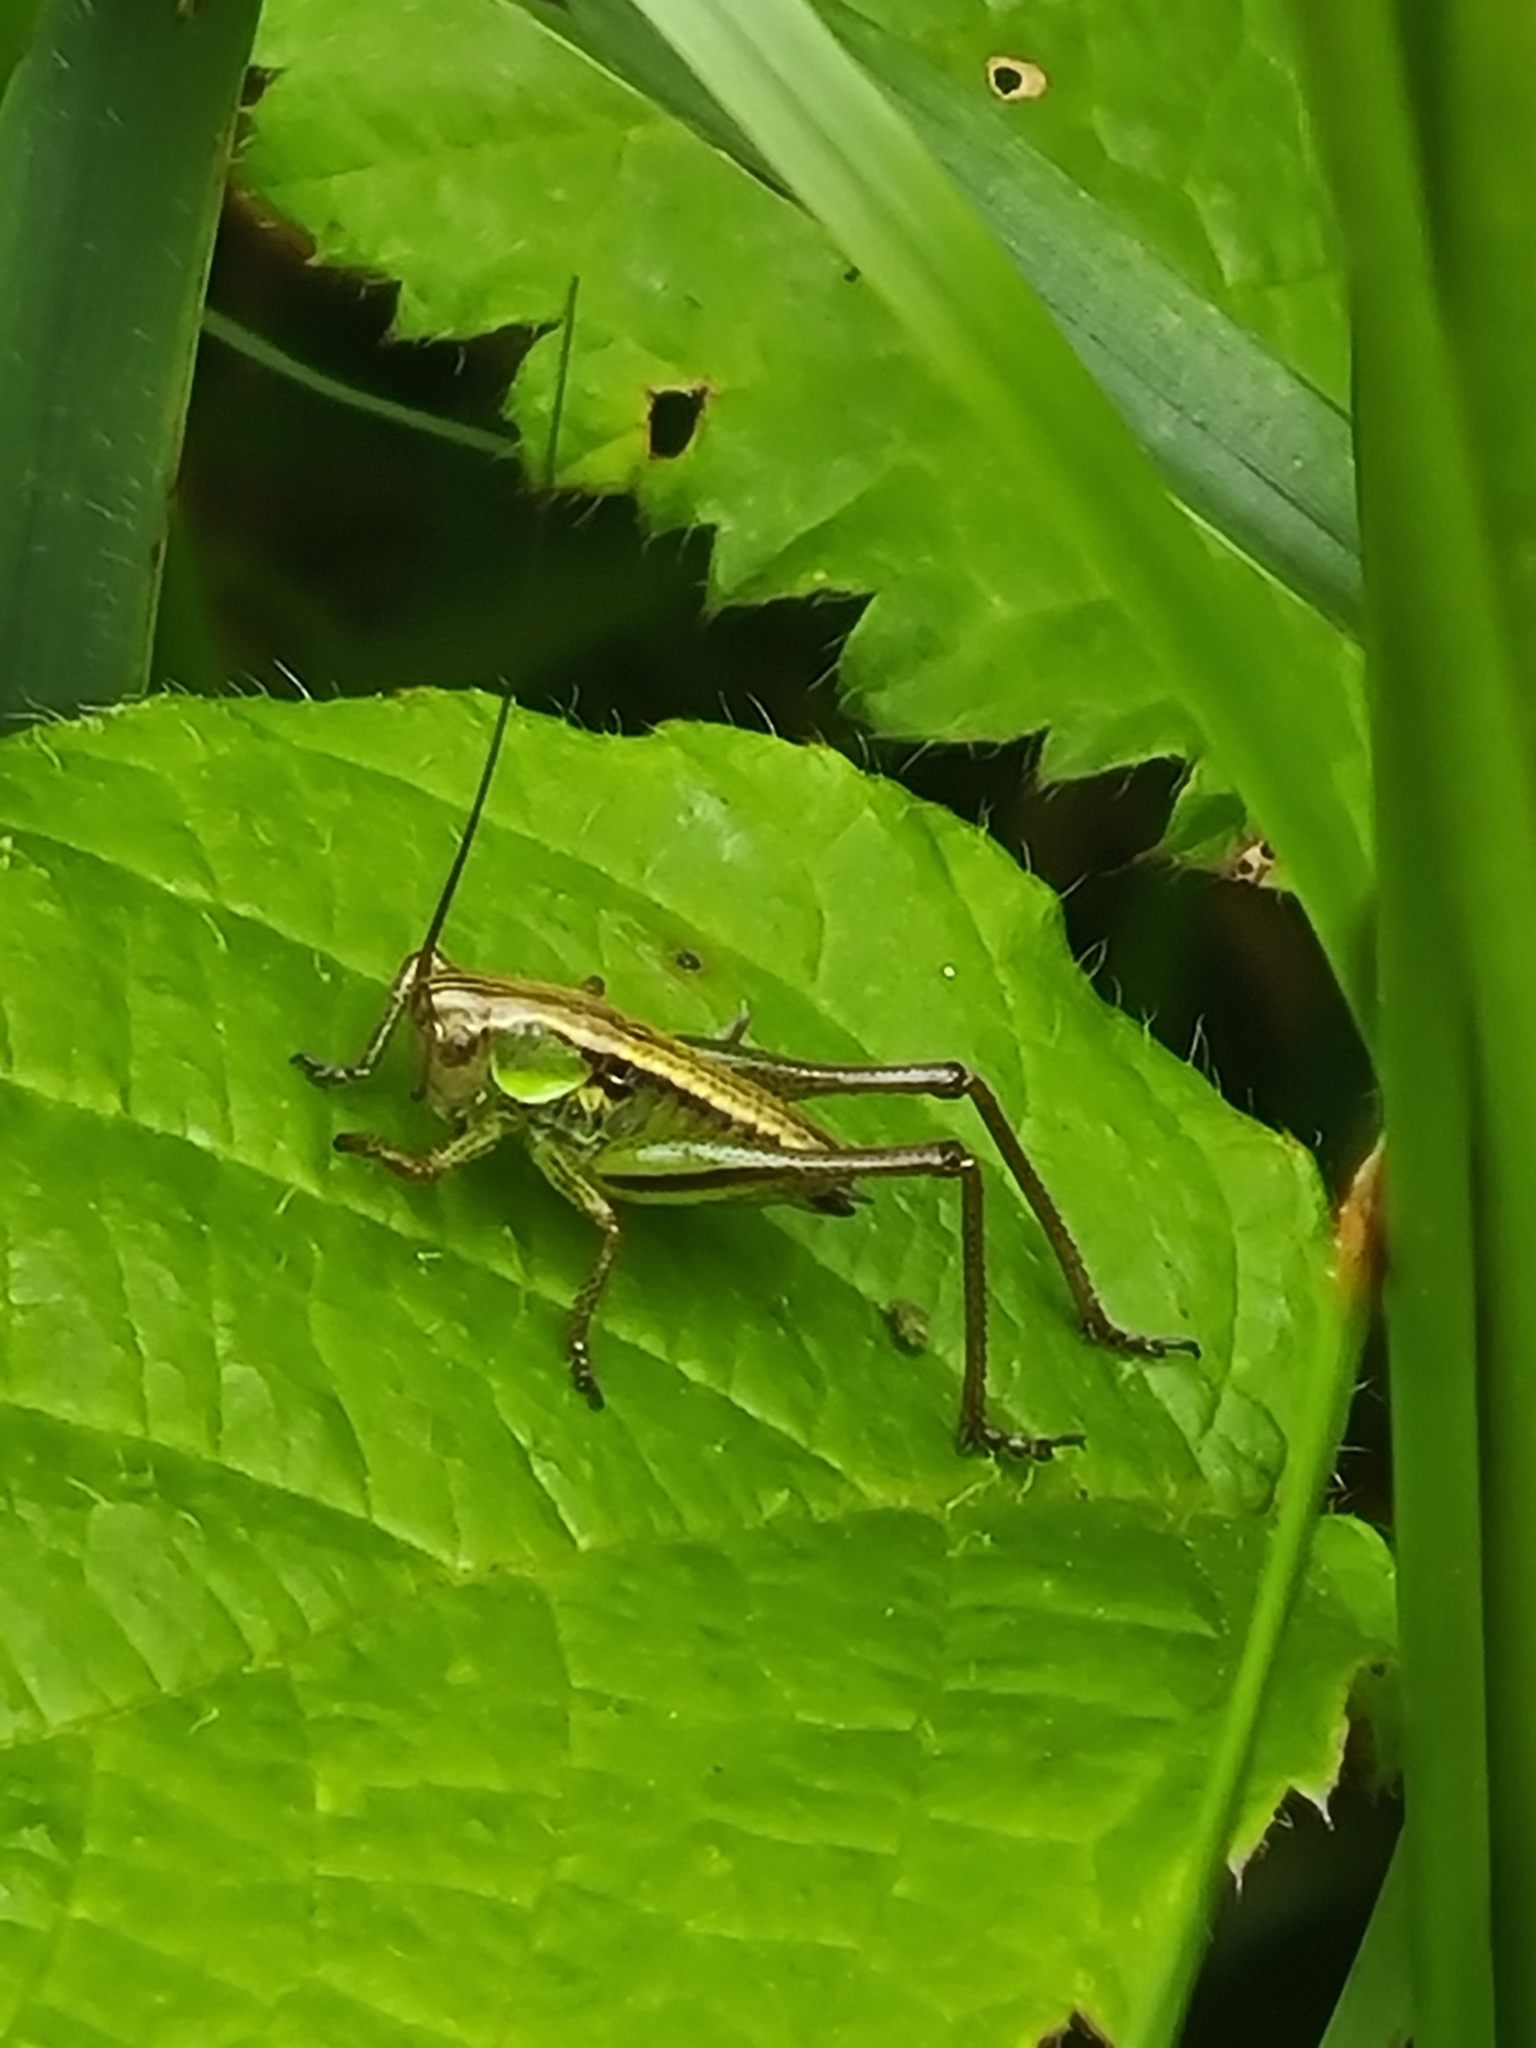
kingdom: Animalia
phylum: Arthropoda
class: Insecta
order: Orthoptera
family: Tettigoniidae
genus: Roeseliana
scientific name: Roeseliana roeselii
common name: Roesel's bush cricket
